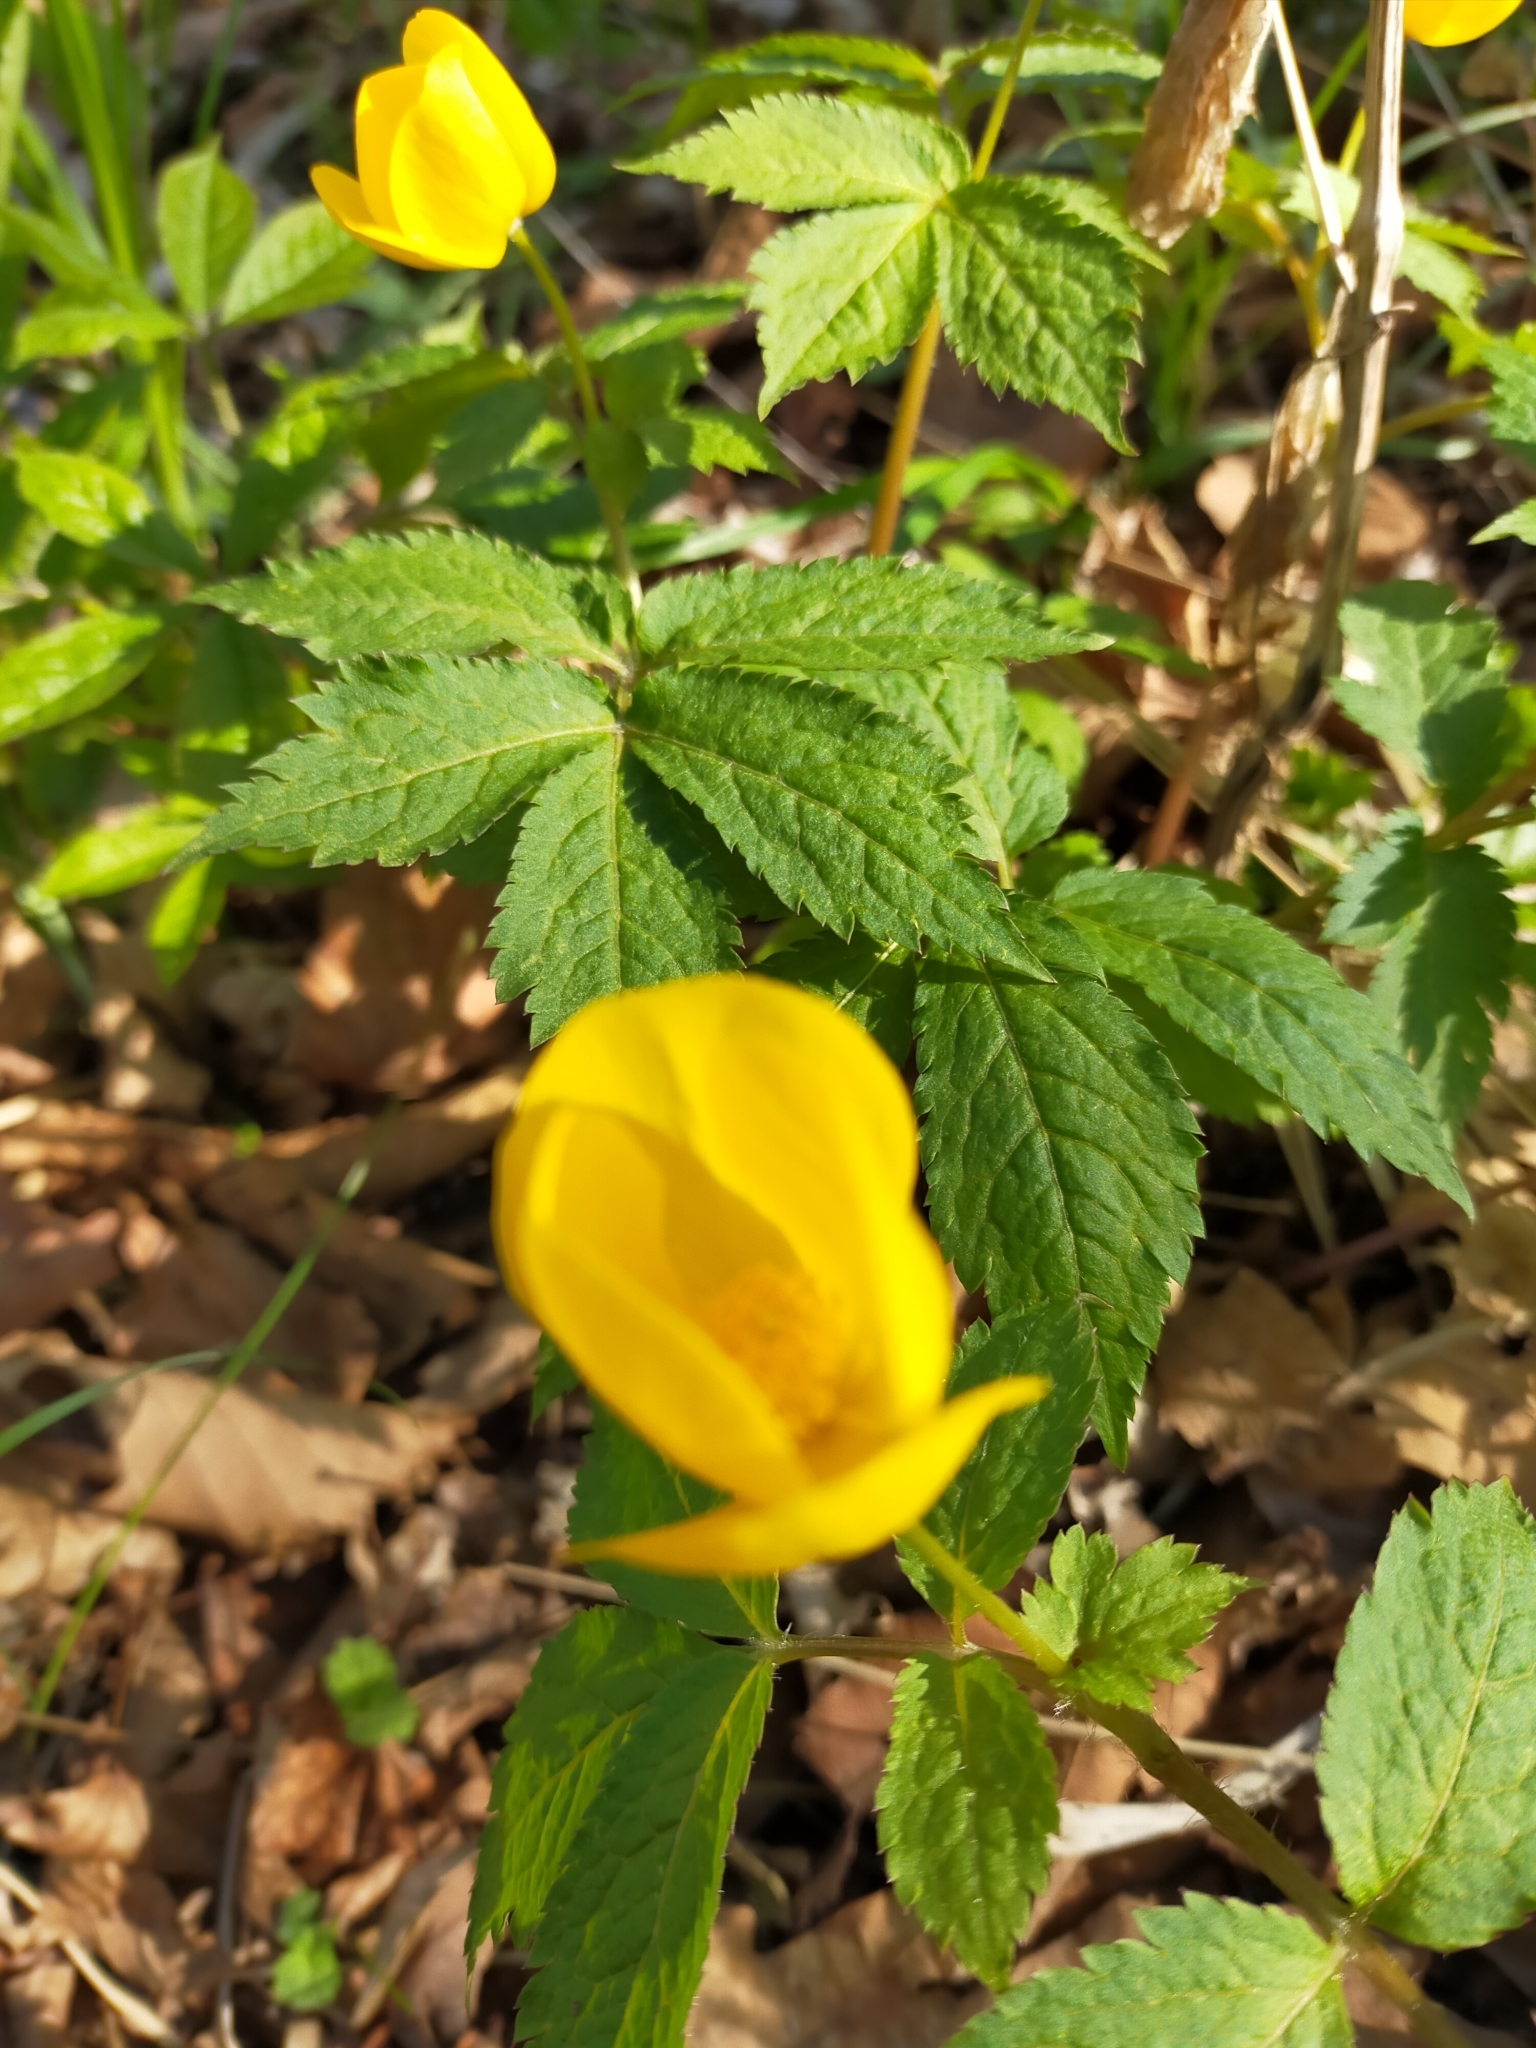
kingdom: Plantae
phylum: Tracheophyta
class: Magnoliopsida
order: Ranunculales
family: Papaveraceae
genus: Hylomecon
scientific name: Hylomecon vernalis
